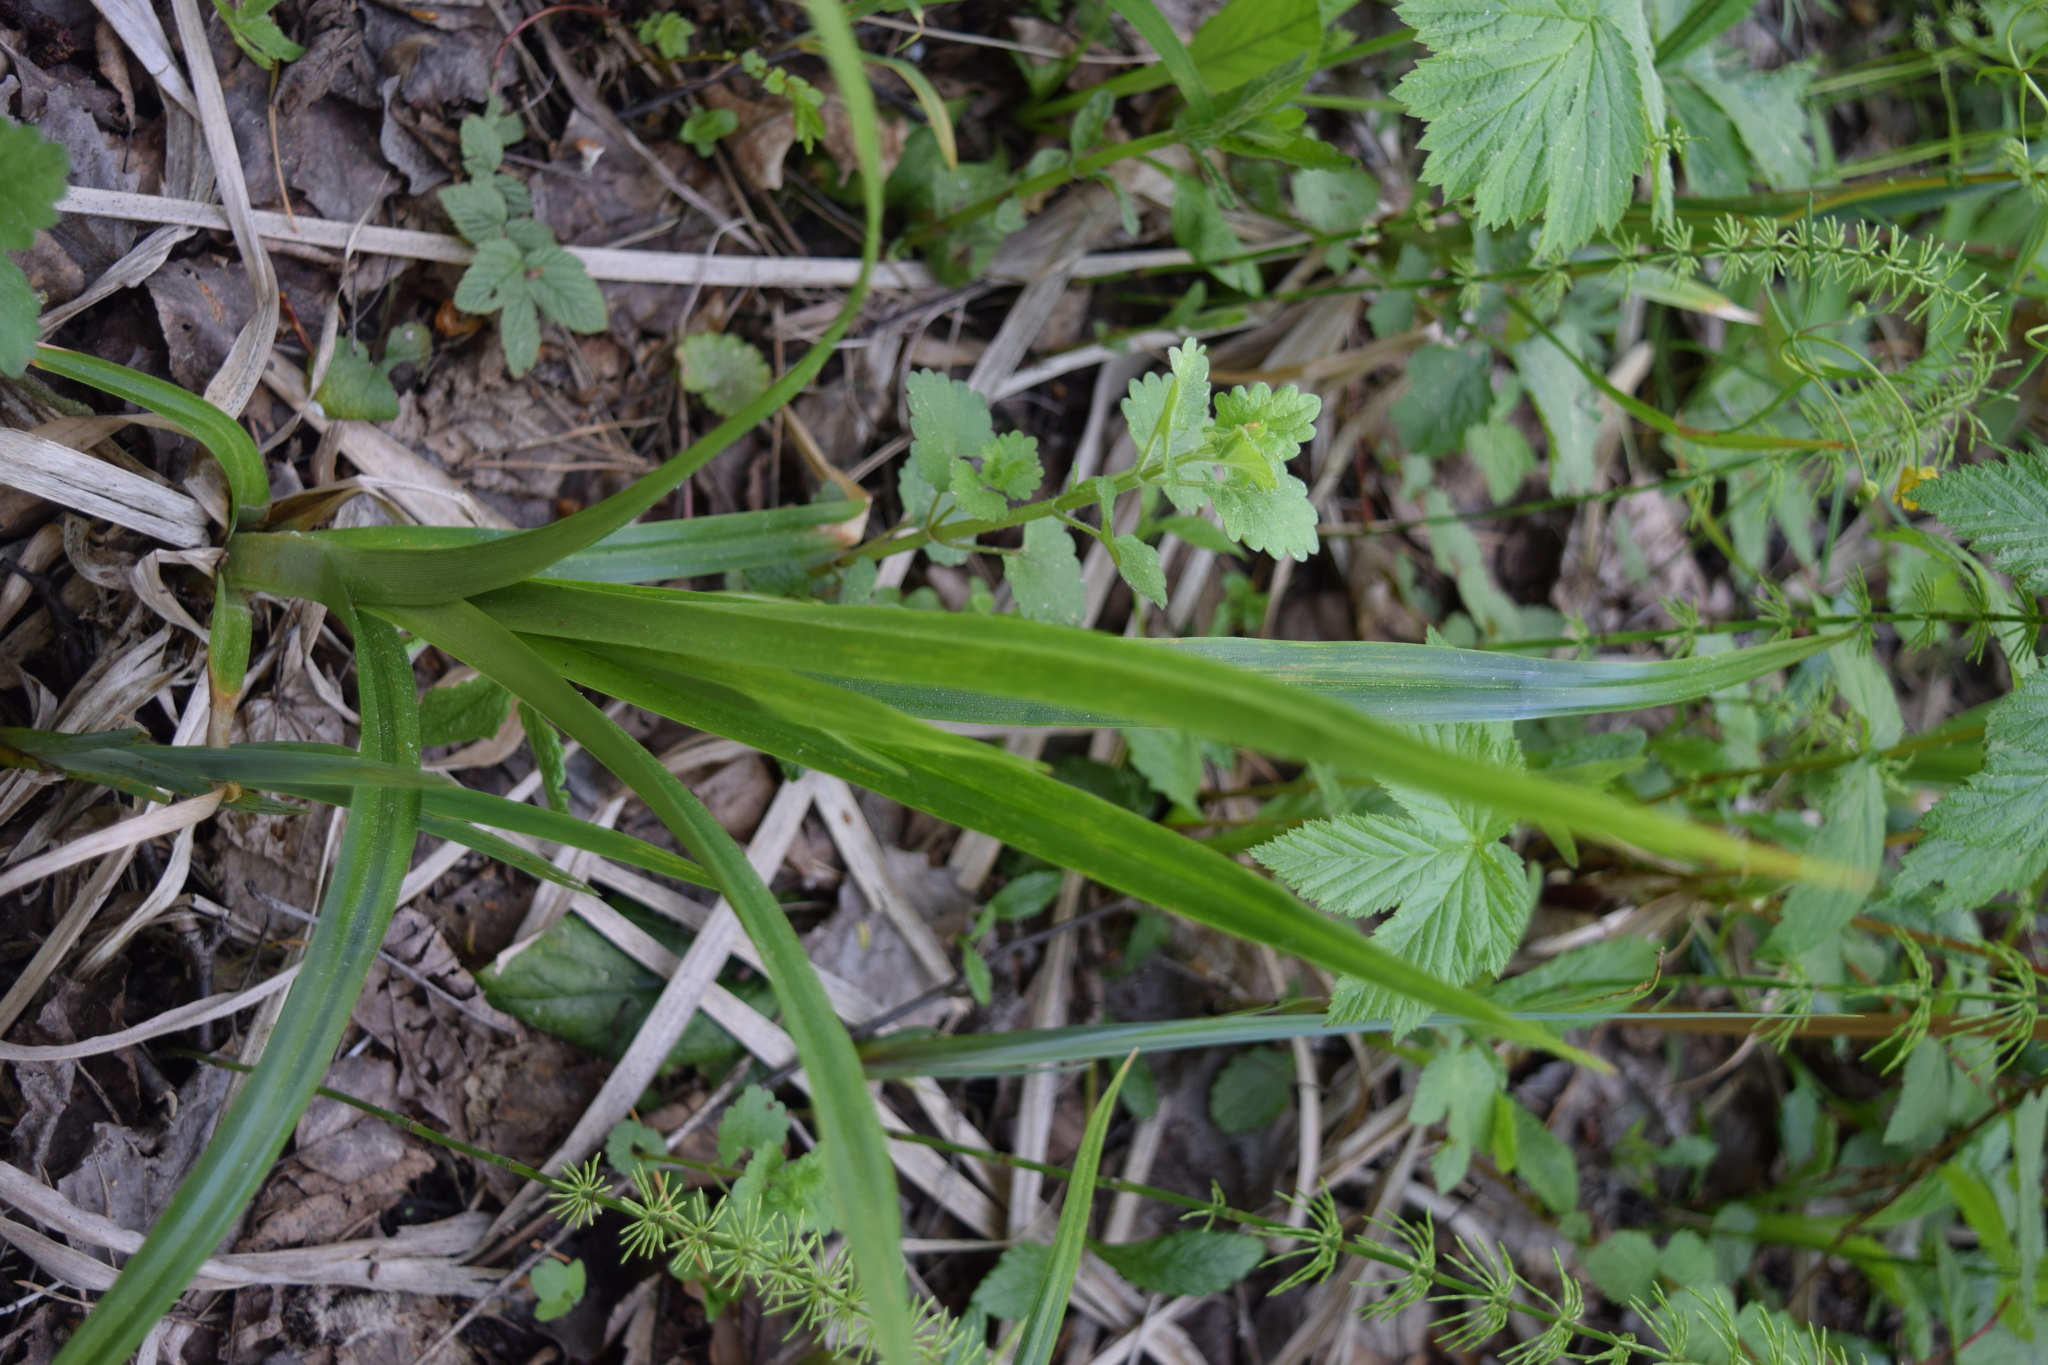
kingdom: Plantae
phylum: Tracheophyta
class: Liliopsida
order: Poales
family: Cyperaceae
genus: Scirpus
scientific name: Scirpus sylvaticus
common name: Wood club-rush
